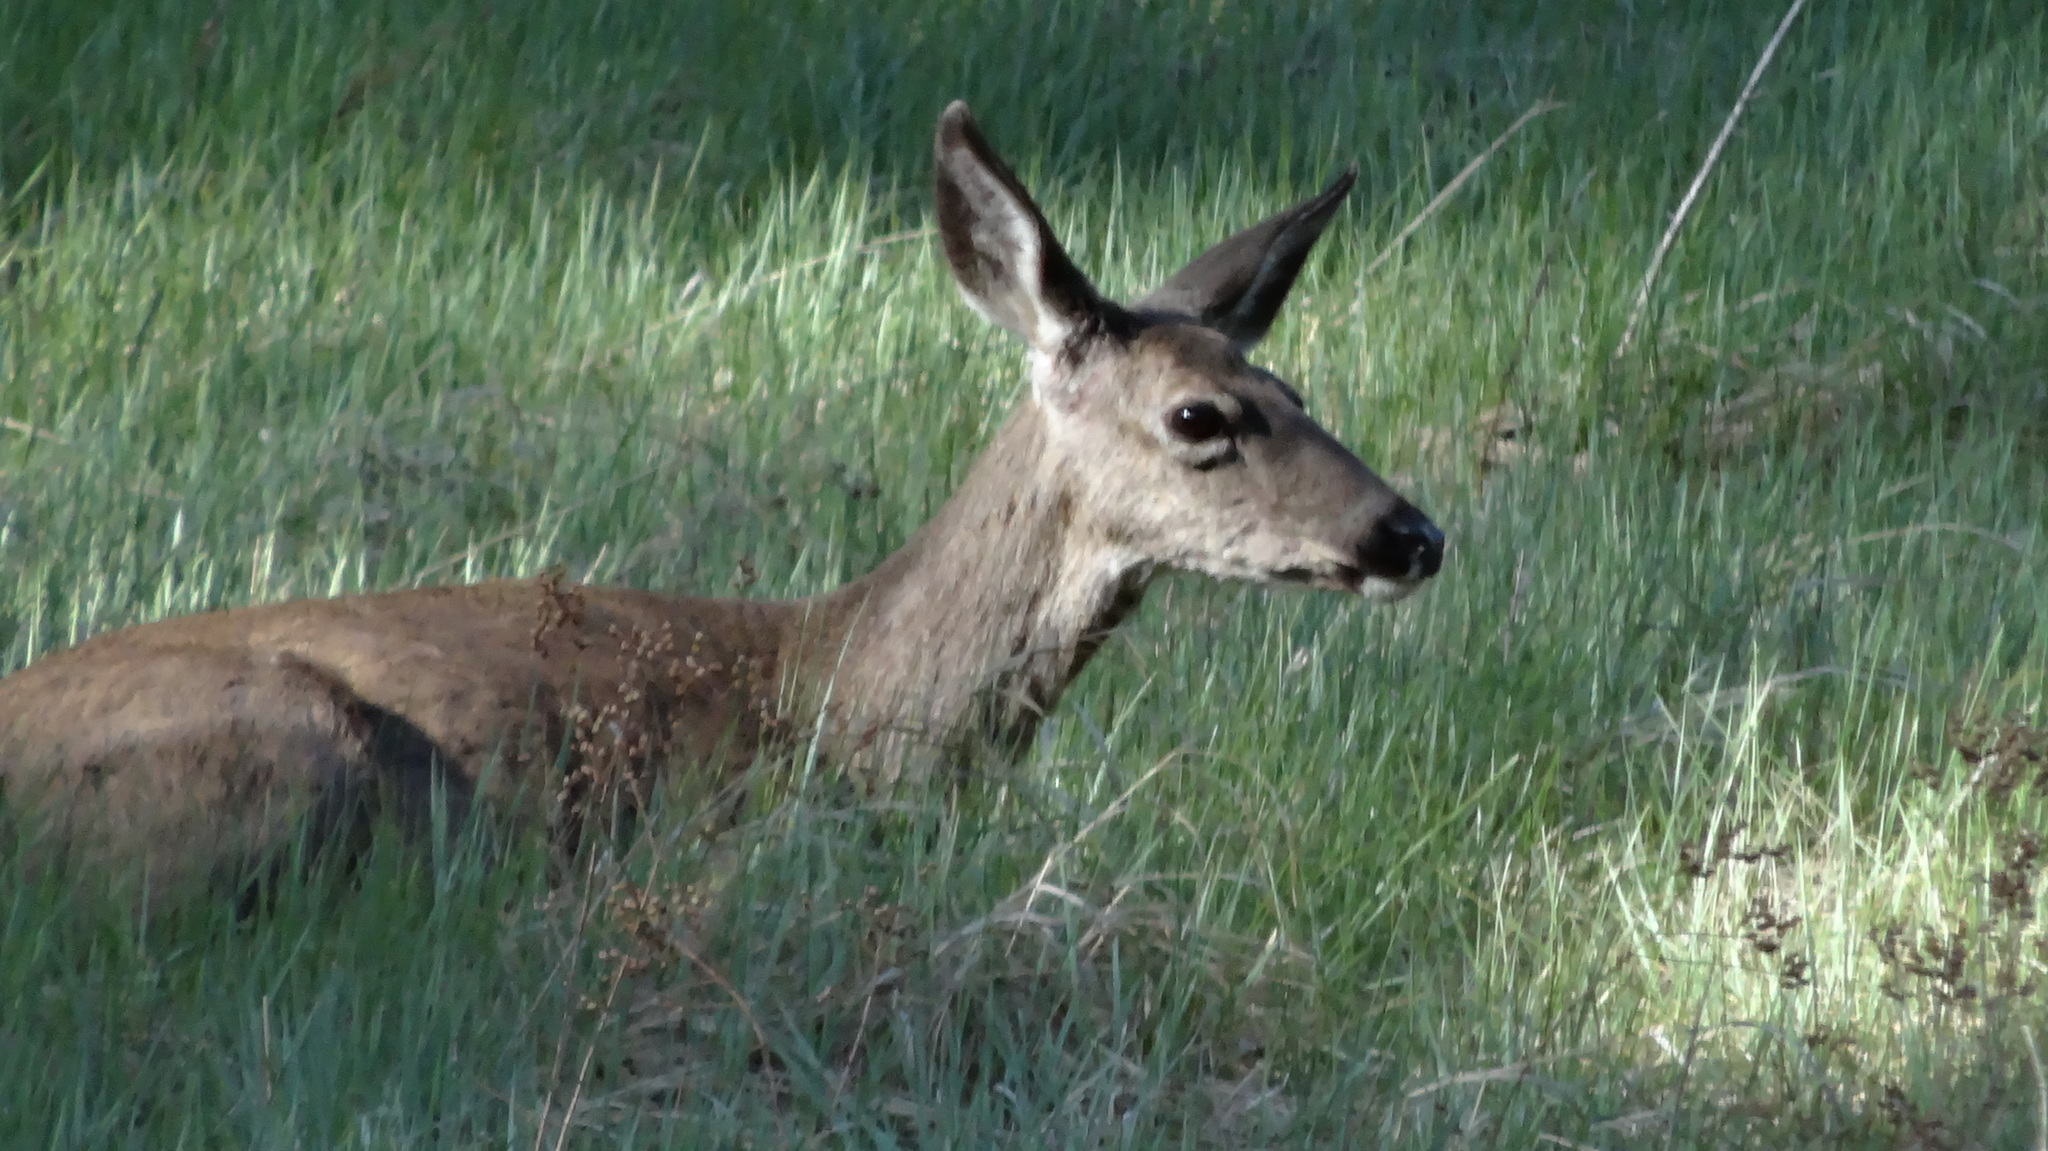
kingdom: Animalia
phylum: Chordata
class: Mammalia
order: Artiodactyla
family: Cervidae
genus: Odocoileus
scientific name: Odocoileus hemionus
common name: Mule deer
